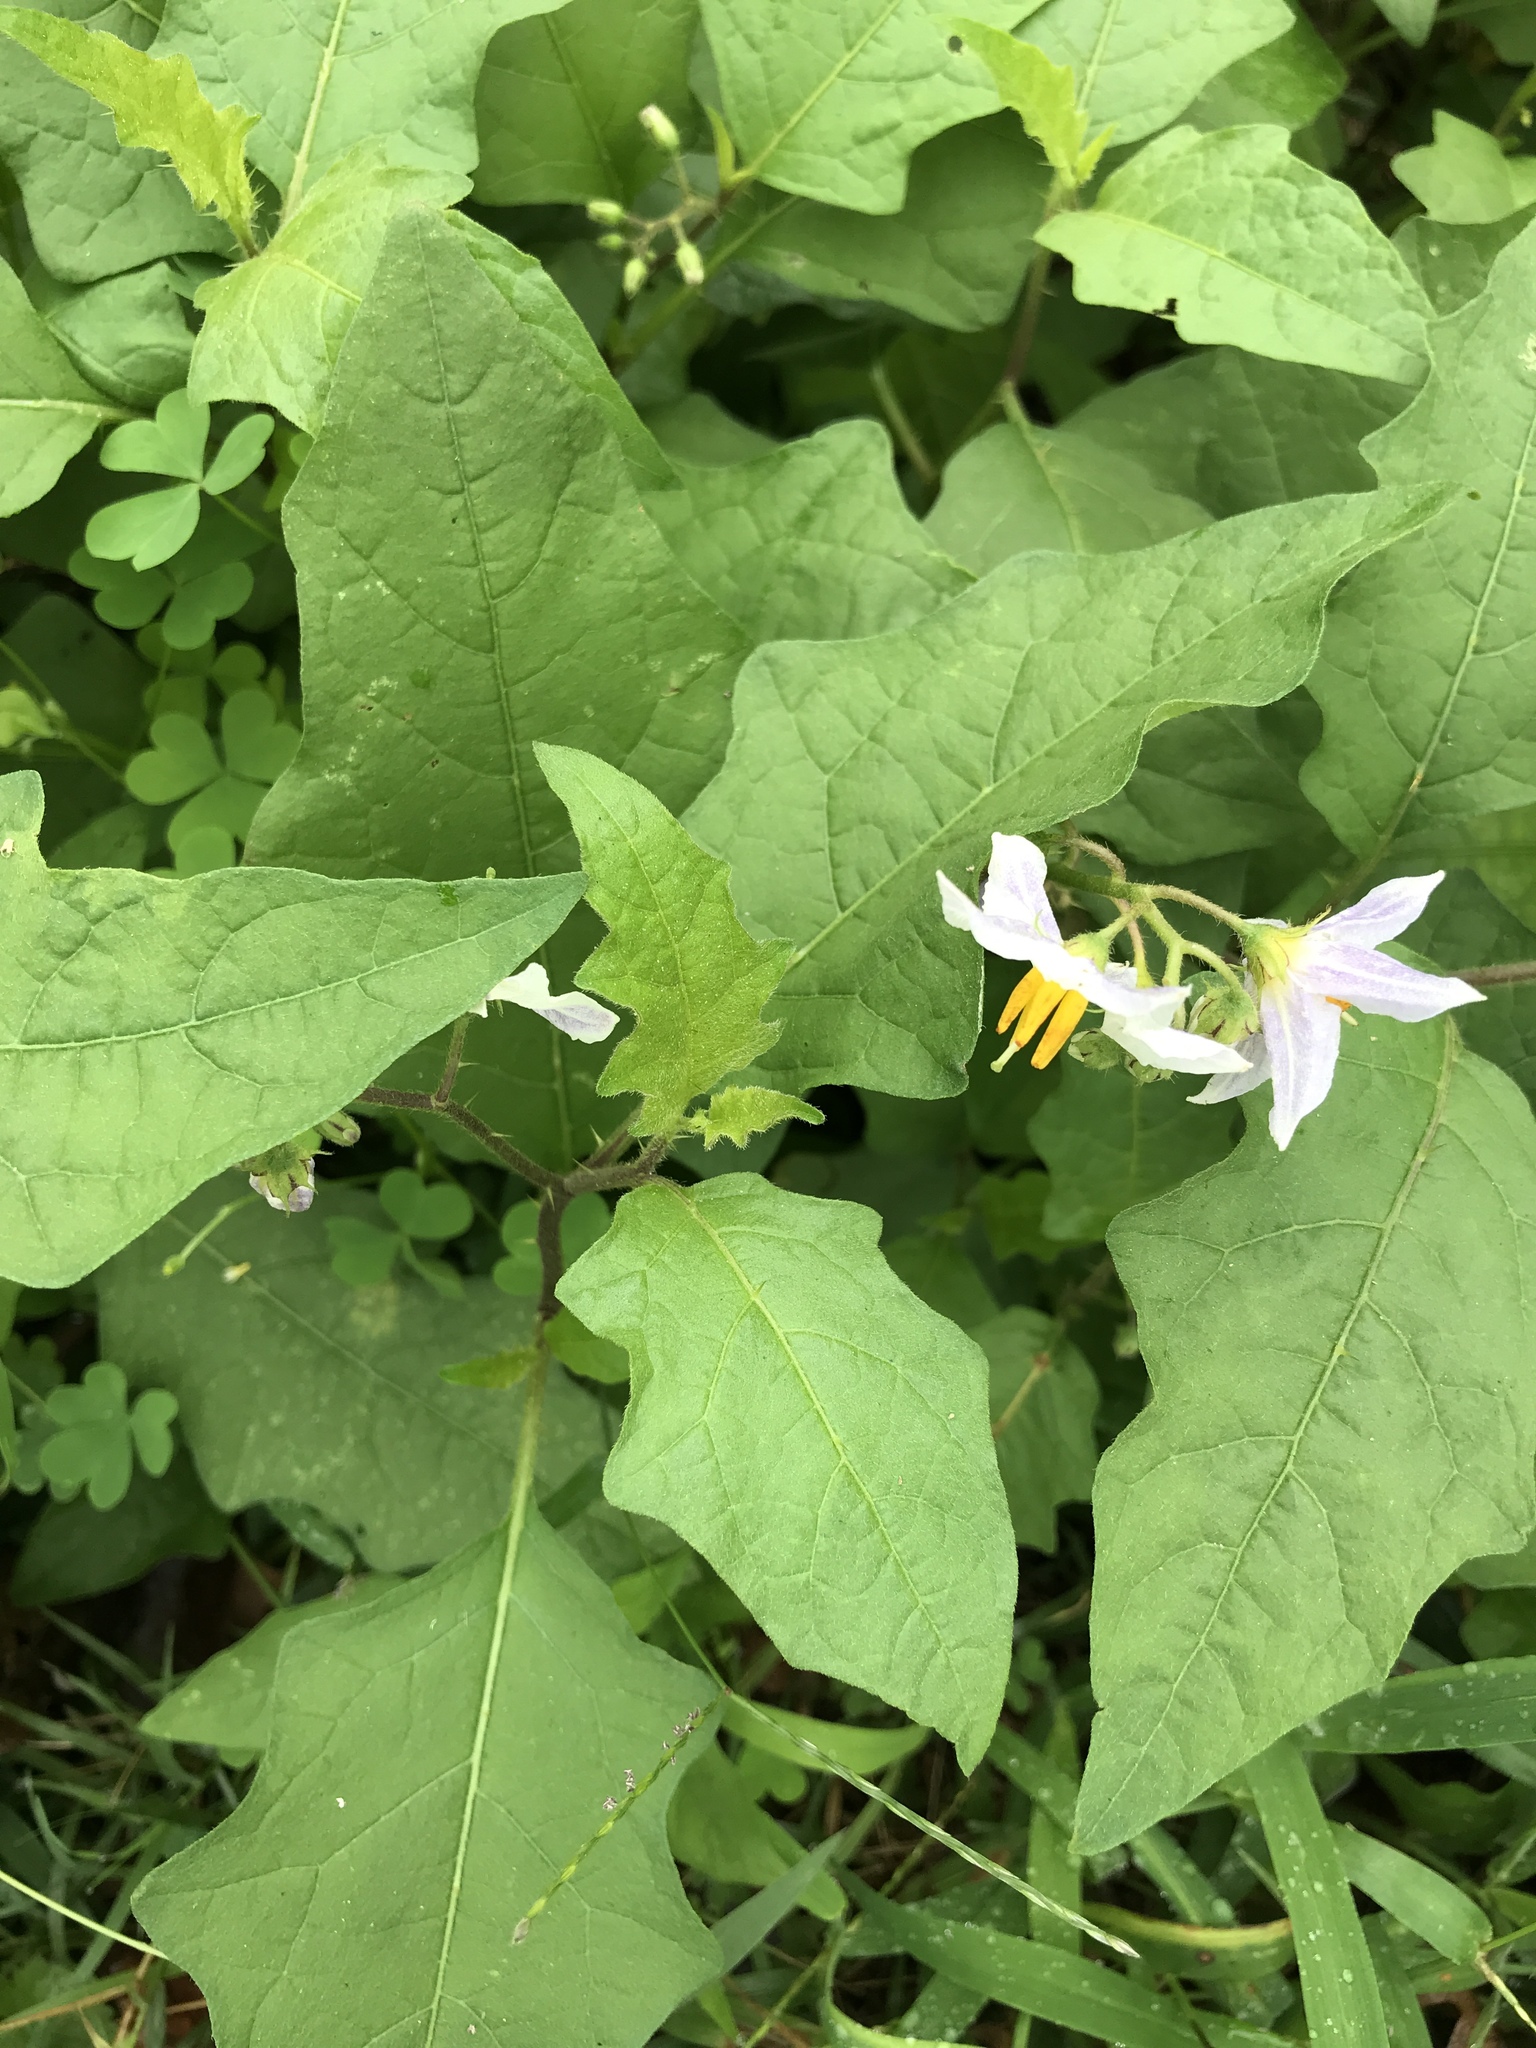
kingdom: Plantae
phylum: Tracheophyta
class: Magnoliopsida
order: Solanales
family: Solanaceae
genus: Solanum
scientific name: Solanum carolinense
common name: Horse-nettle
